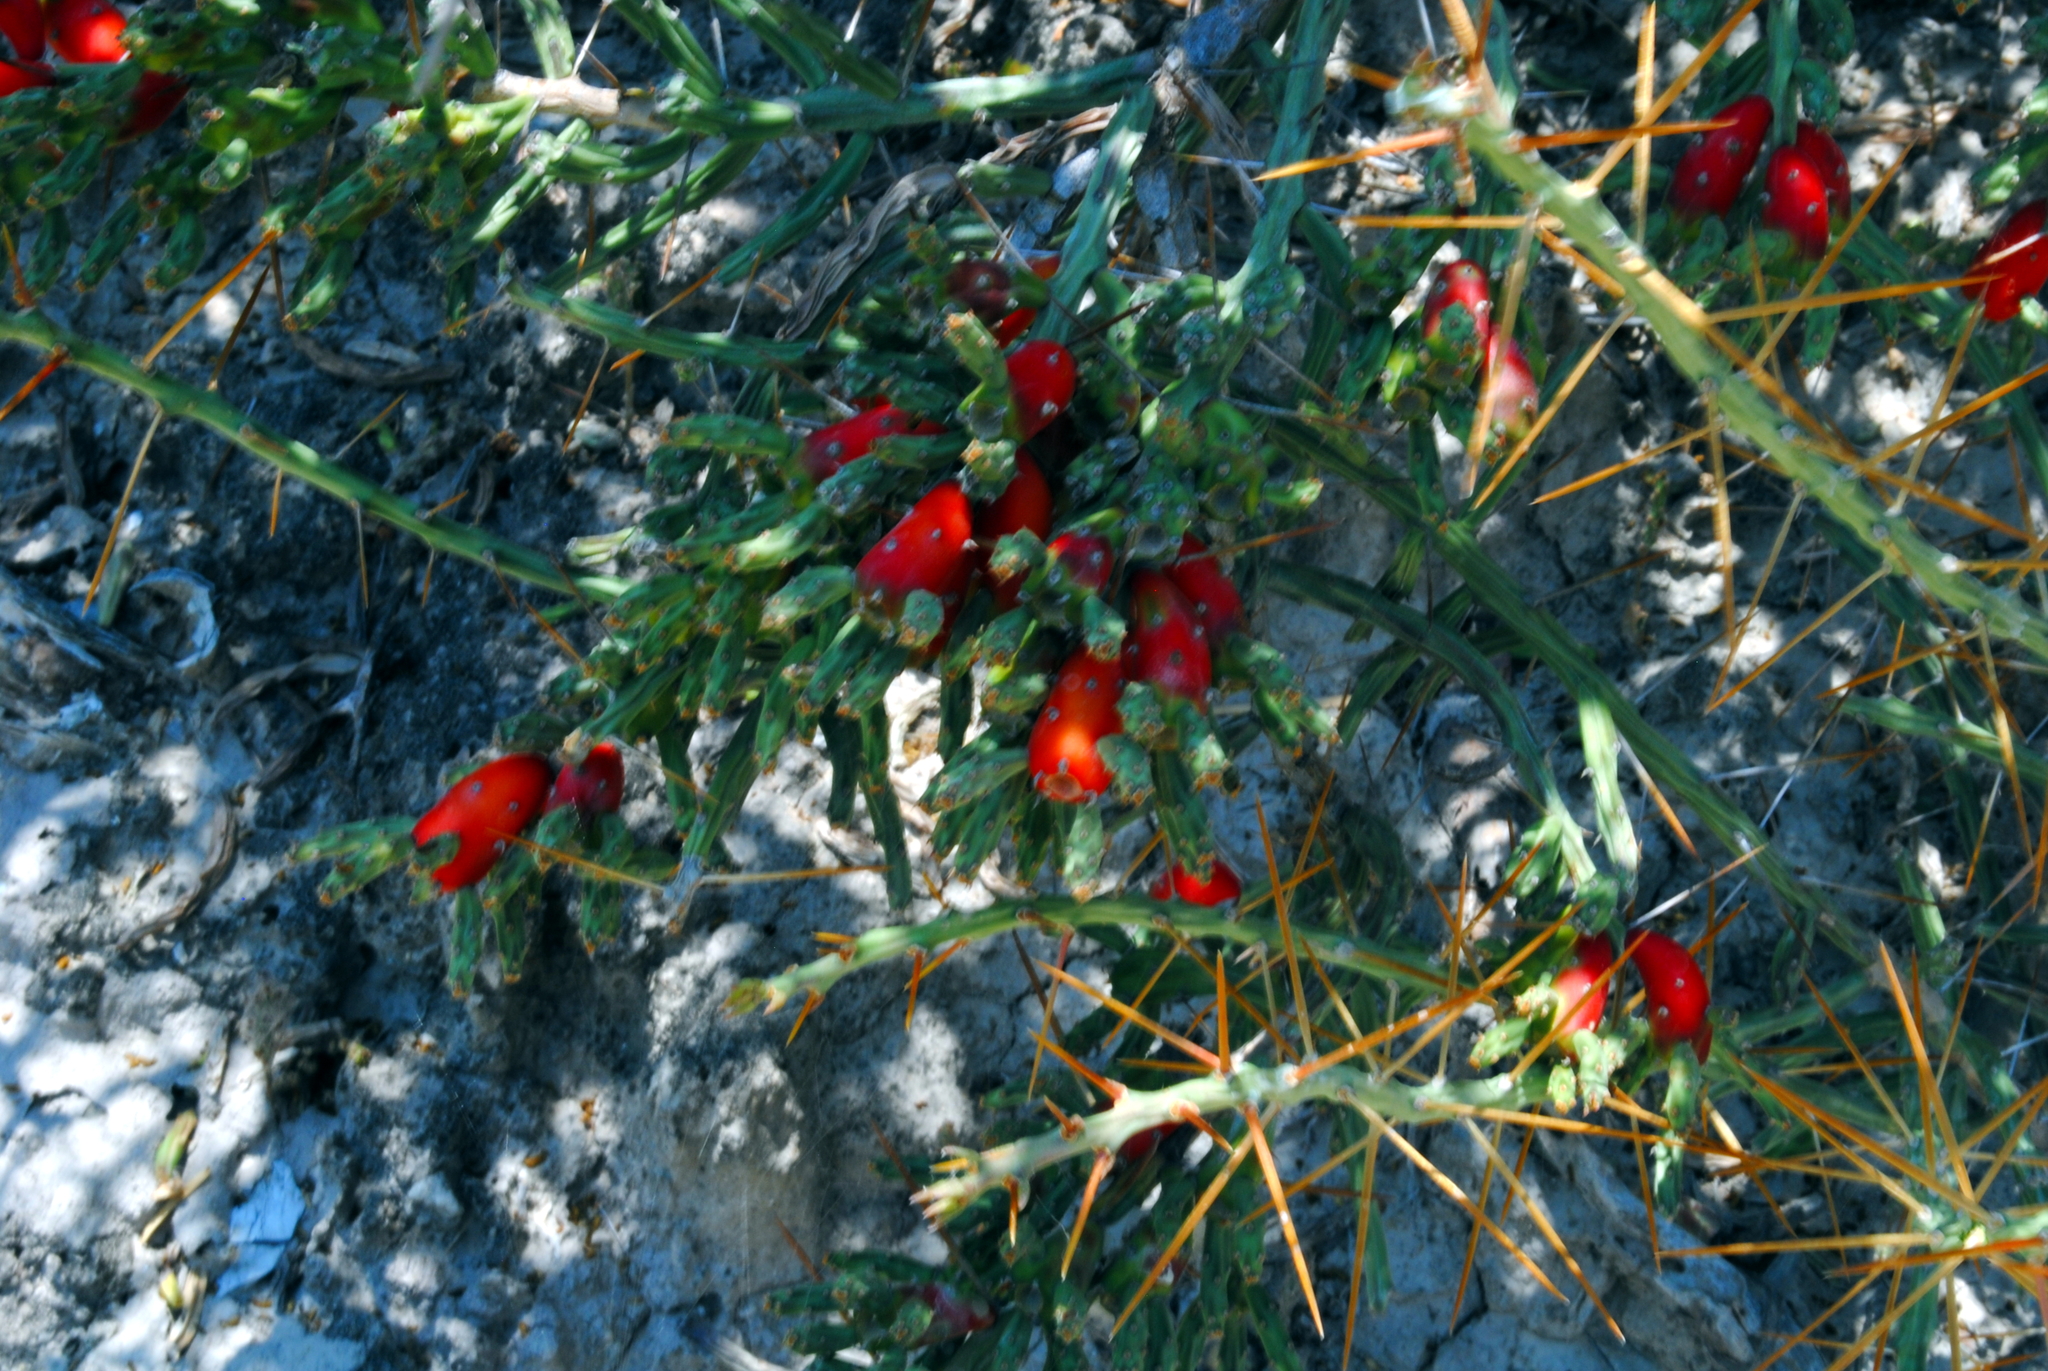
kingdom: Plantae
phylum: Tracheophyta
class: Magnoliopsida
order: Caryophyllales
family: Cactaceae
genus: Cylindropuntia
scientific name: Cylindropuntia leptocaulis
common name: Christmas cactus
